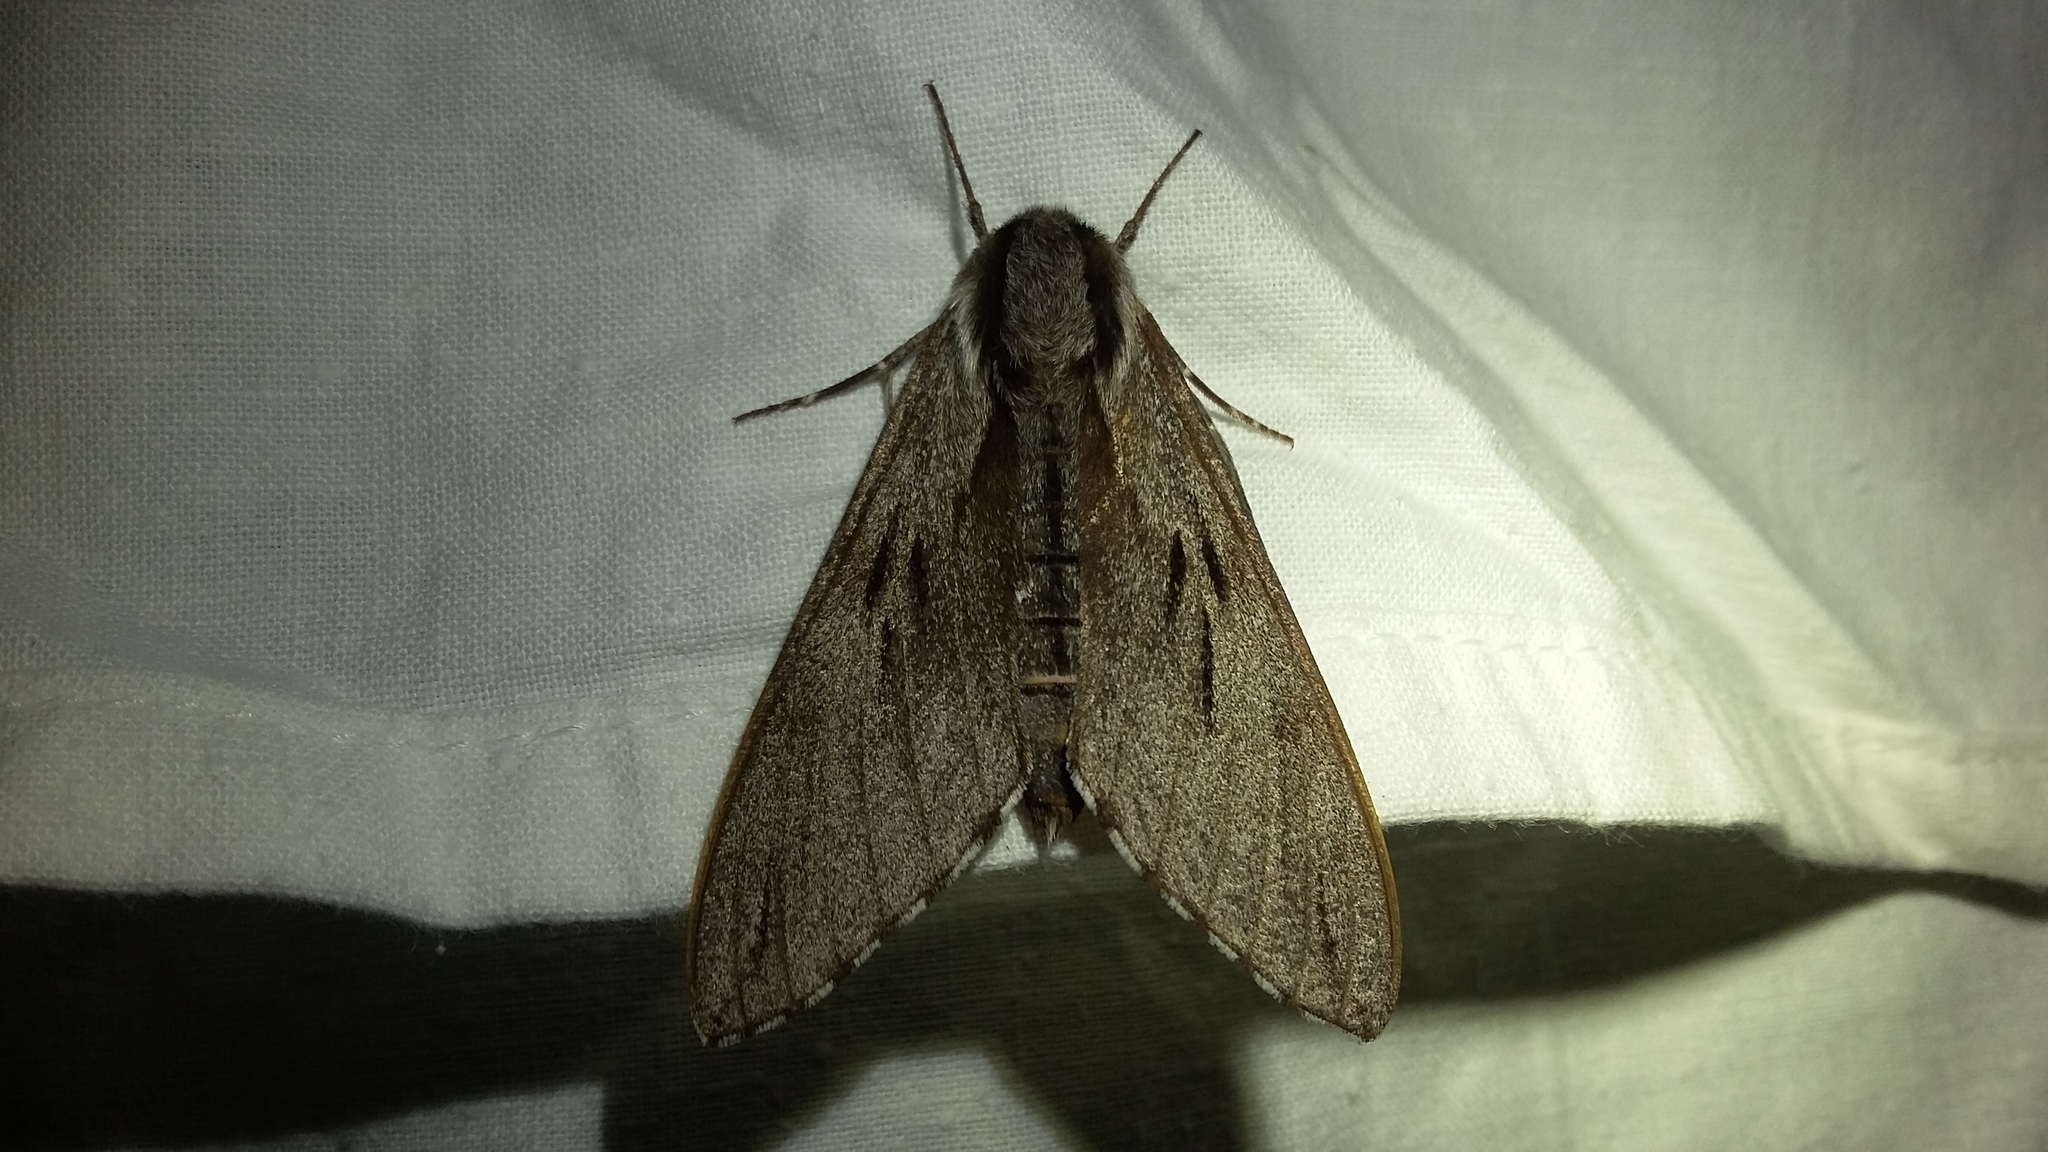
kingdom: Animalia
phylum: Arthropoda
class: Insecta
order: Lepidoptera
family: Sphingidae
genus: Sphinx
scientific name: Sphinx pinastri
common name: Pine hawk-moth
